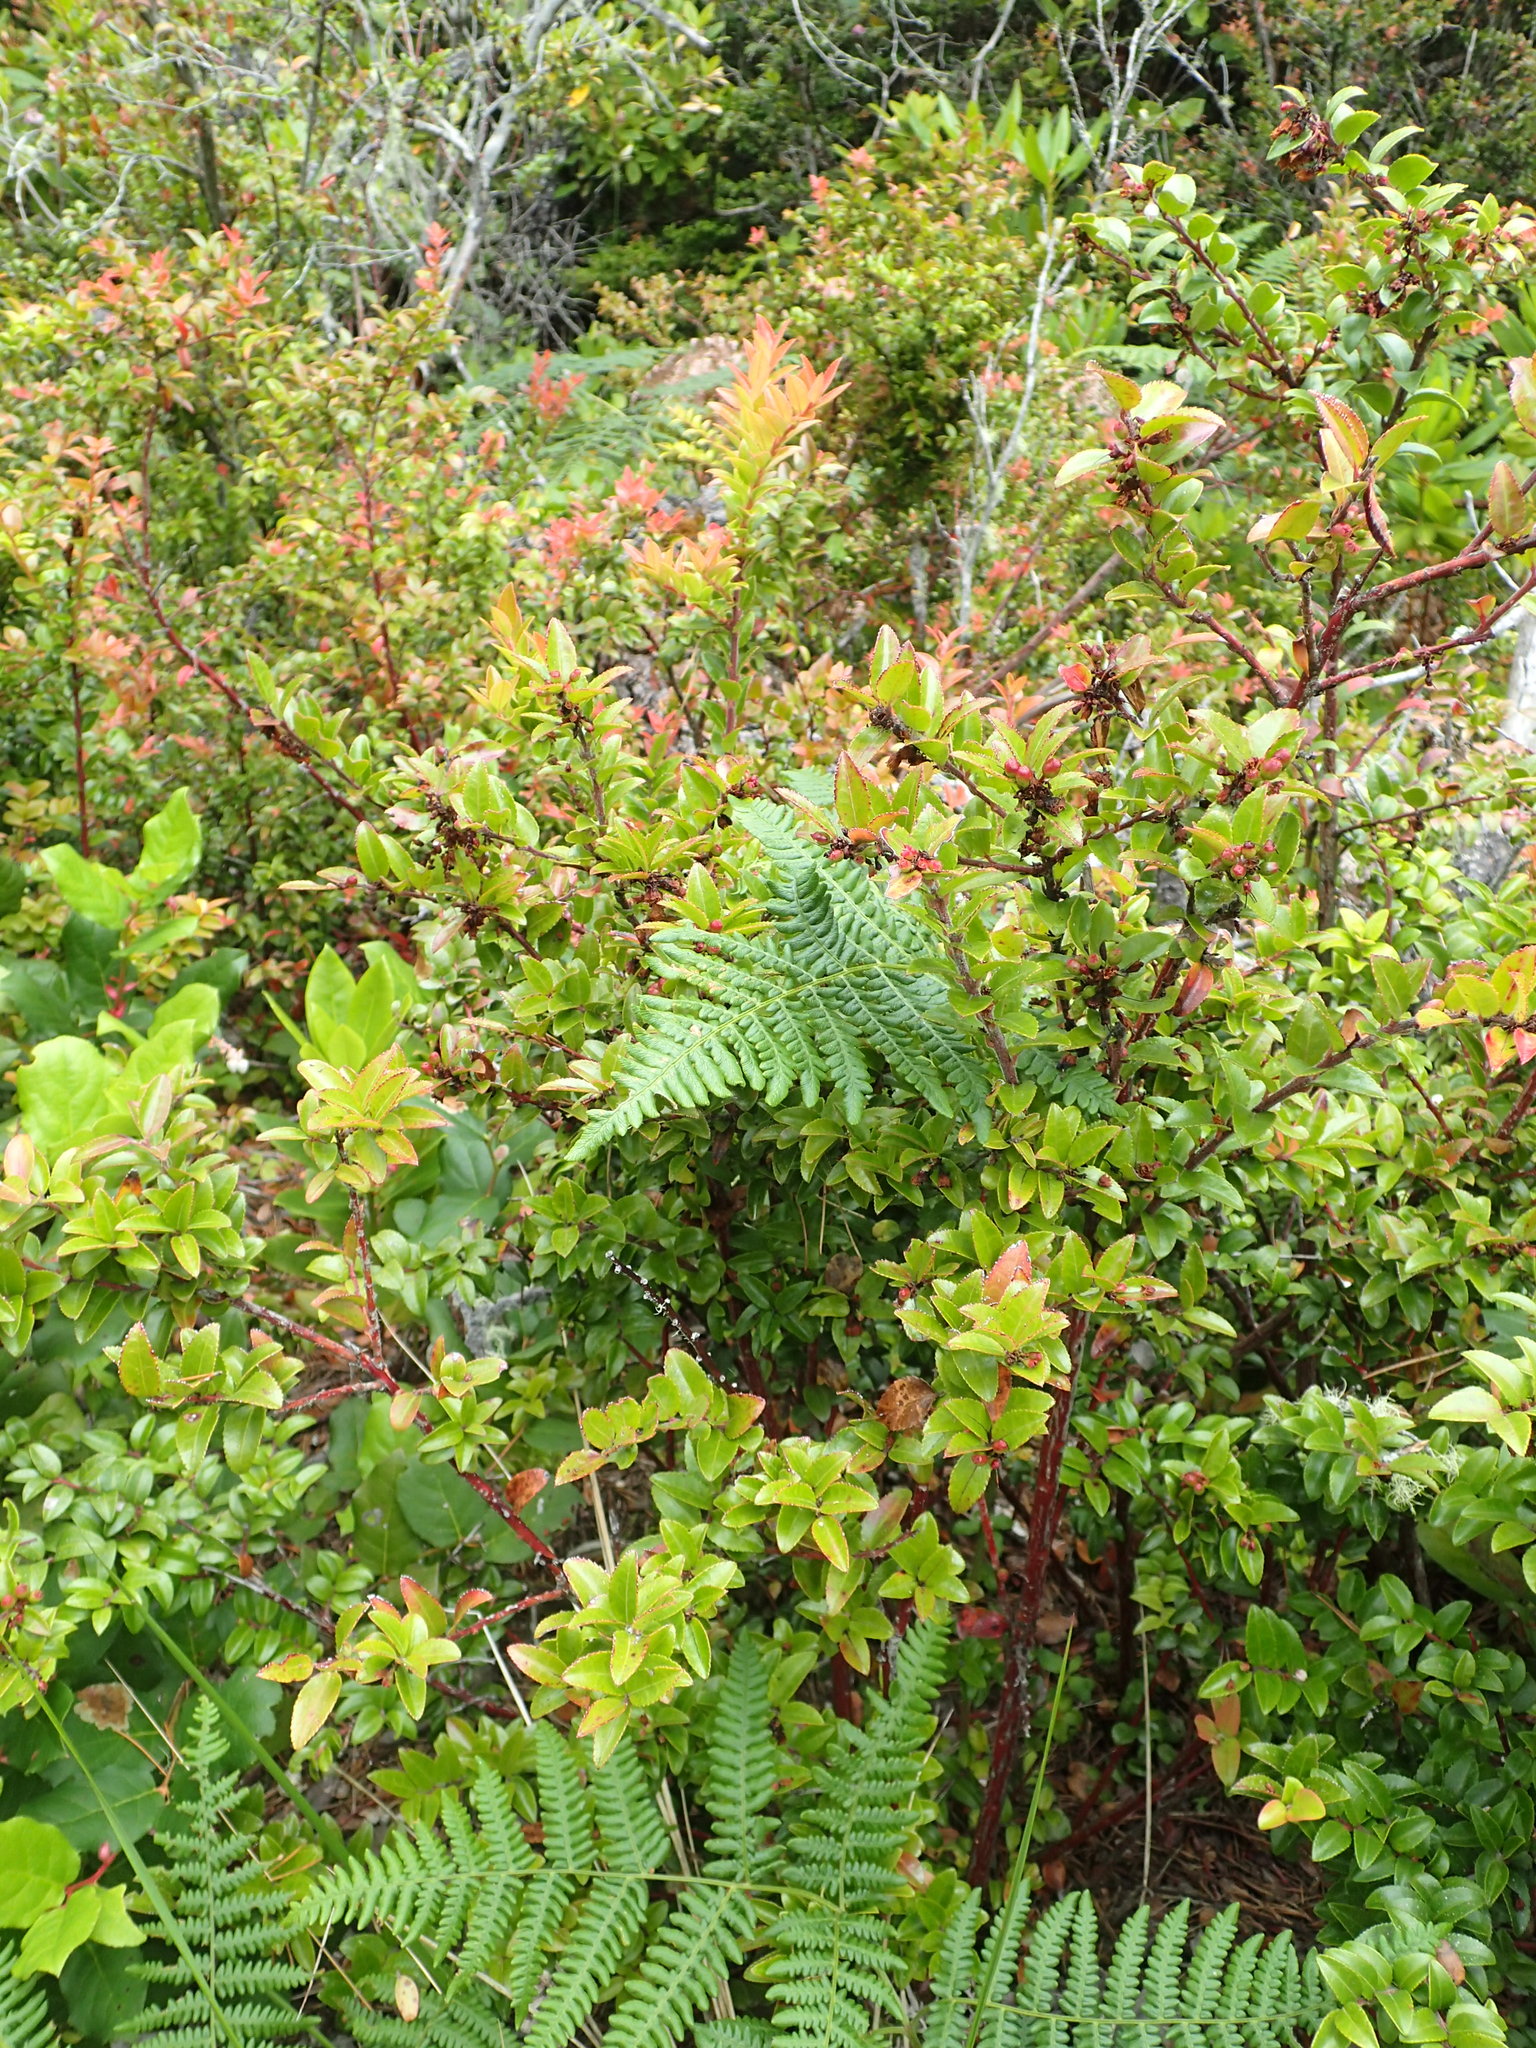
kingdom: Plantae
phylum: Tracheophyta
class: Magnoliopsida
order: Ericales
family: Ericaceae
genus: Vaccinium
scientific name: Vaccinium ovatum
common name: California-huckleberry
